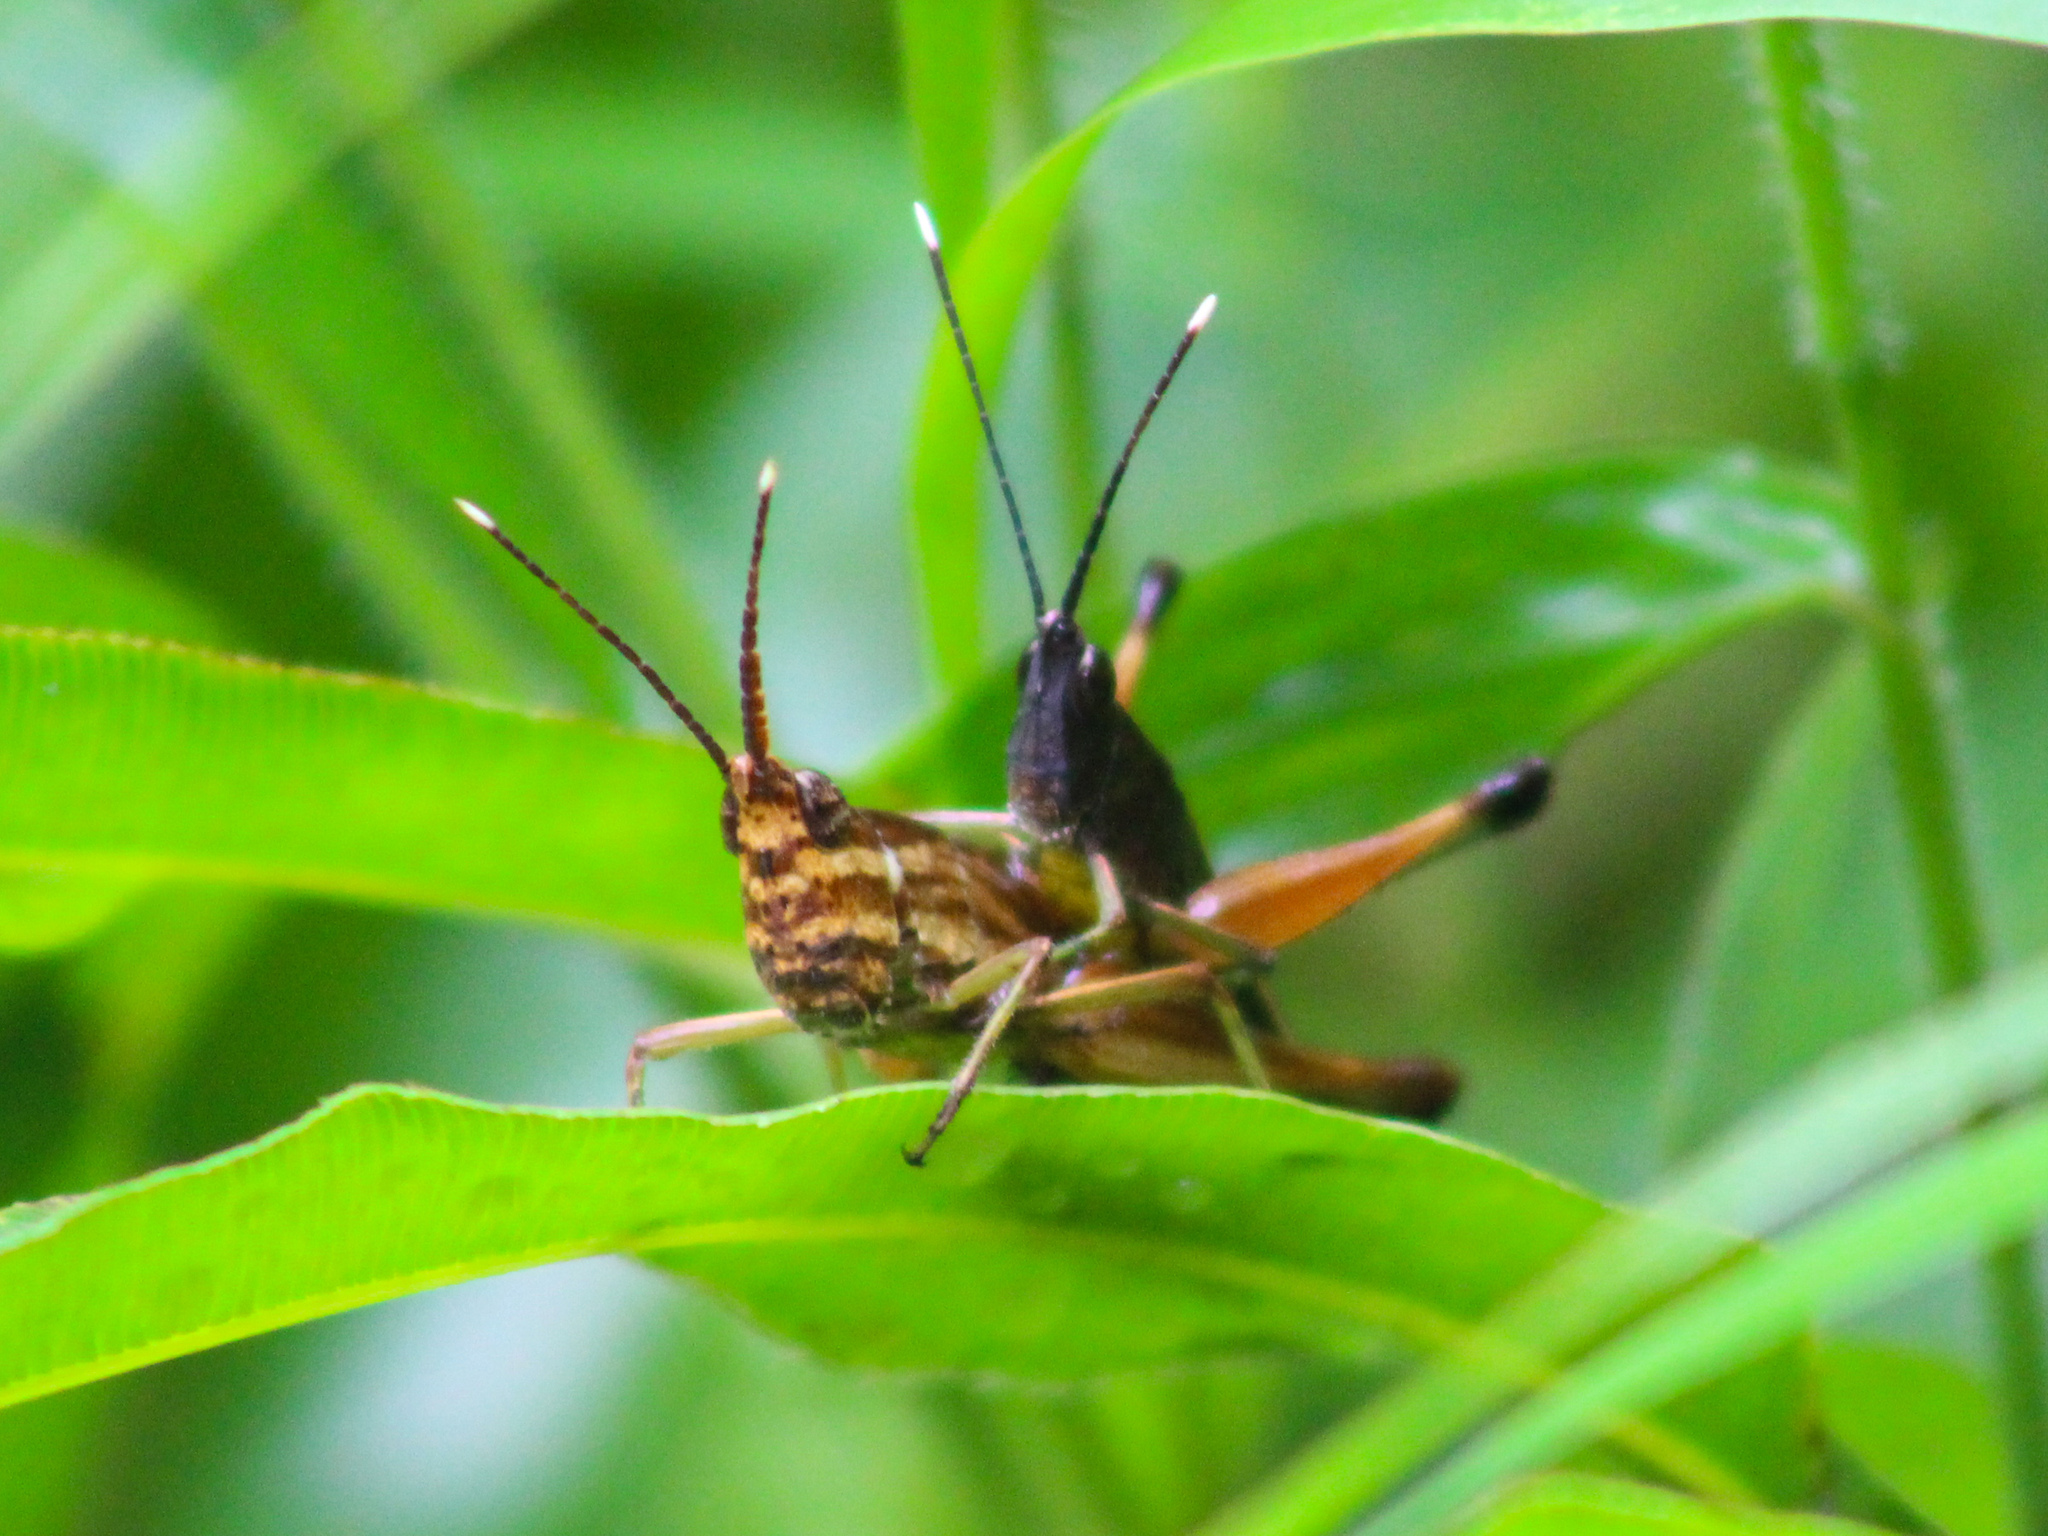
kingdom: Animalia
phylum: Arthropoda
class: Insecta
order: Orthoptera
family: Acrididae
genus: Phlaeoba
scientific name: Phlaeoba antennata
